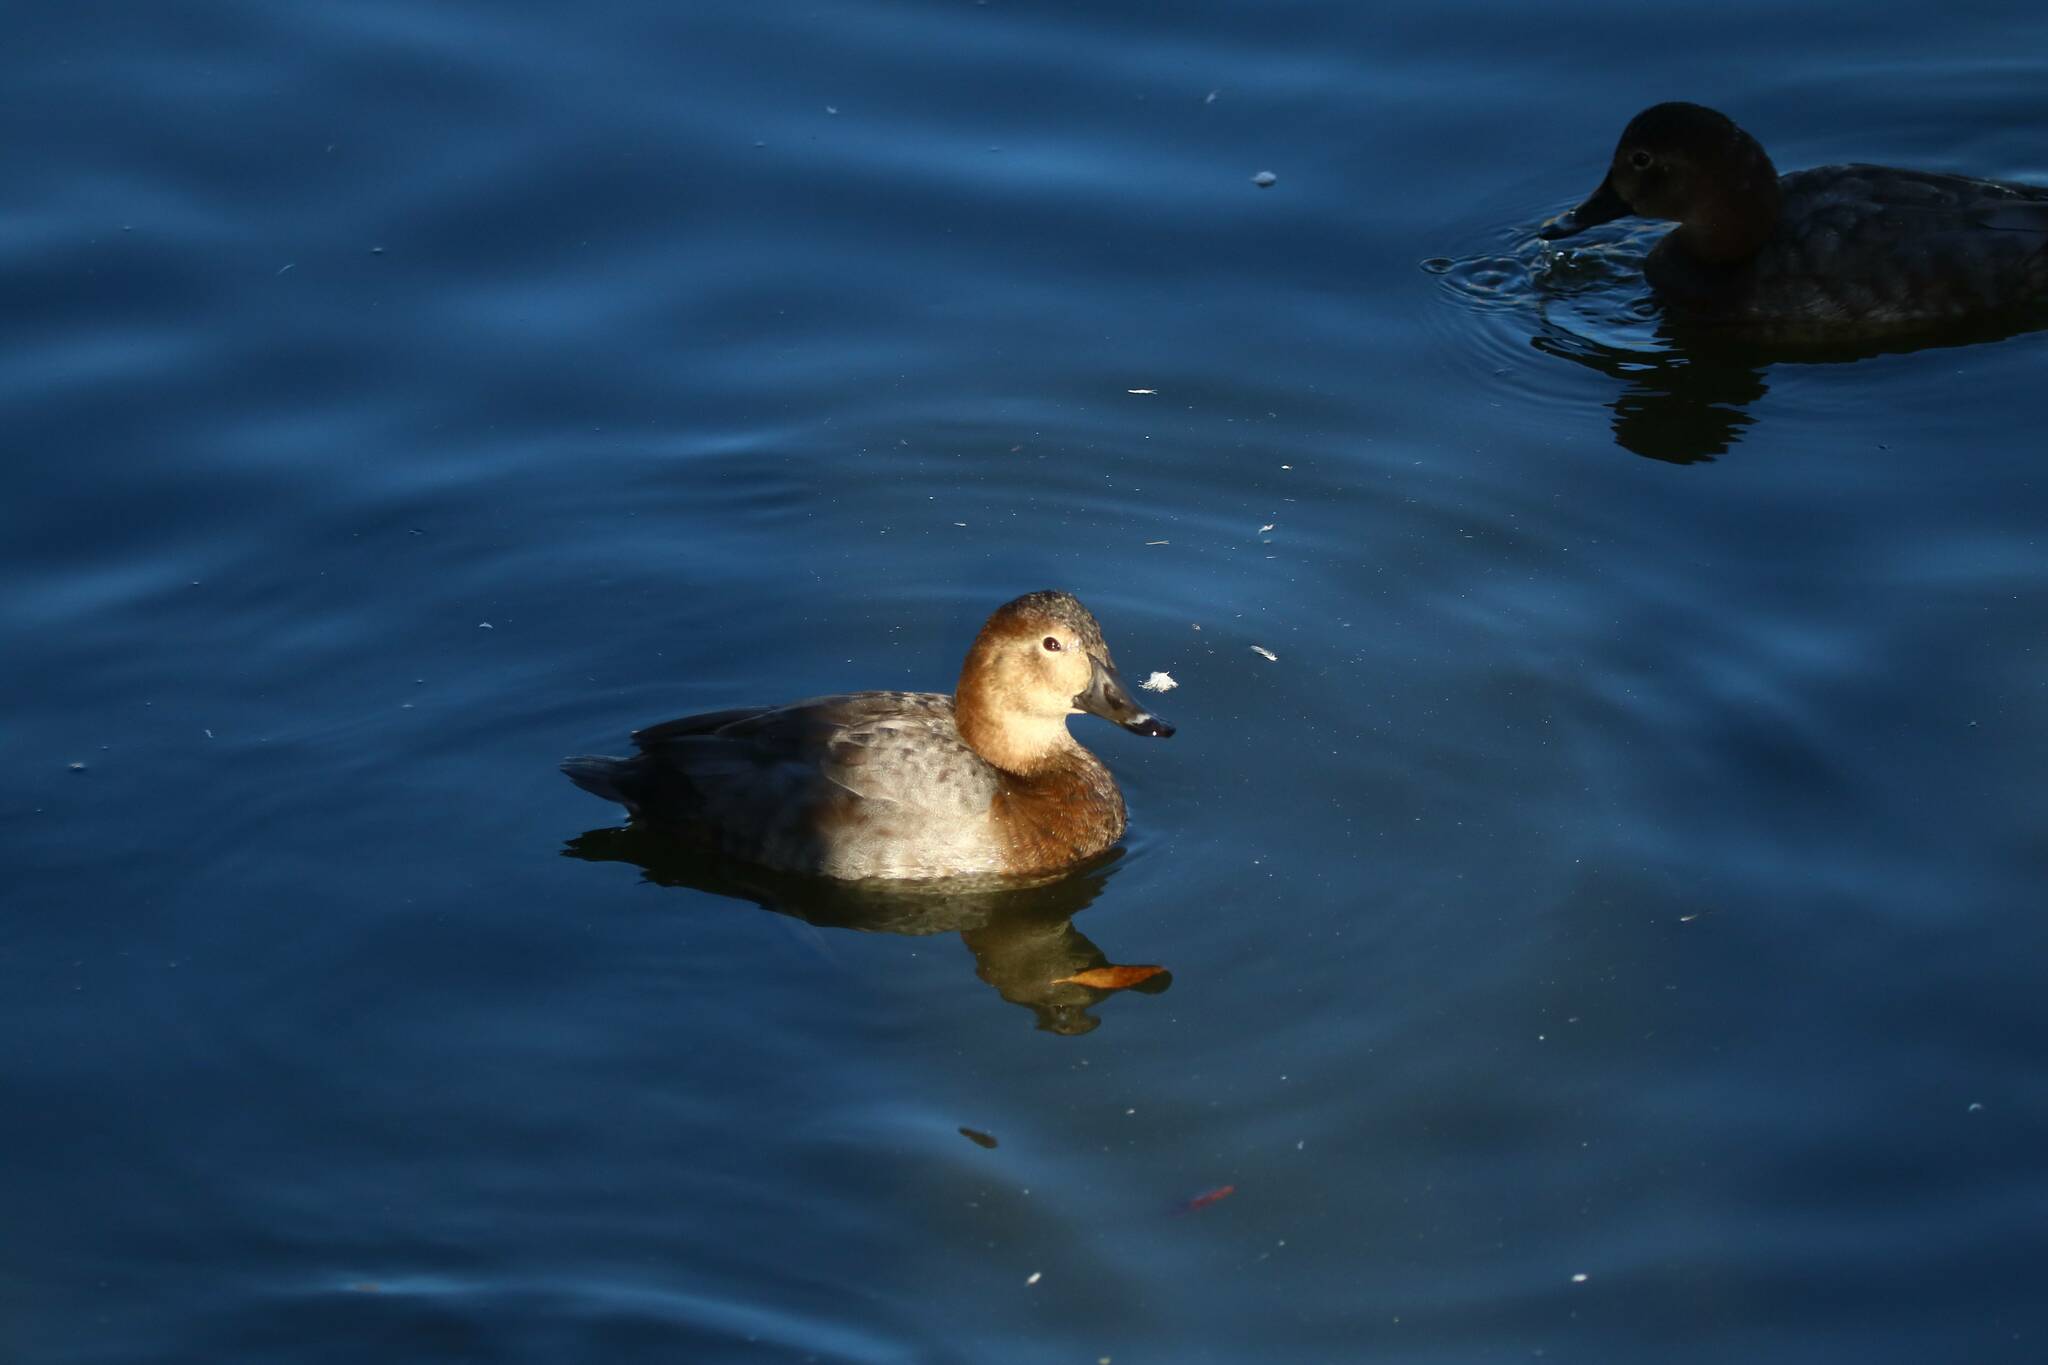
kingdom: Animalia
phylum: Chordata
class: Aves
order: Anseriformes
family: Anatidae
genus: Aythya
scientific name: Aythya ferina
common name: Common pochard
